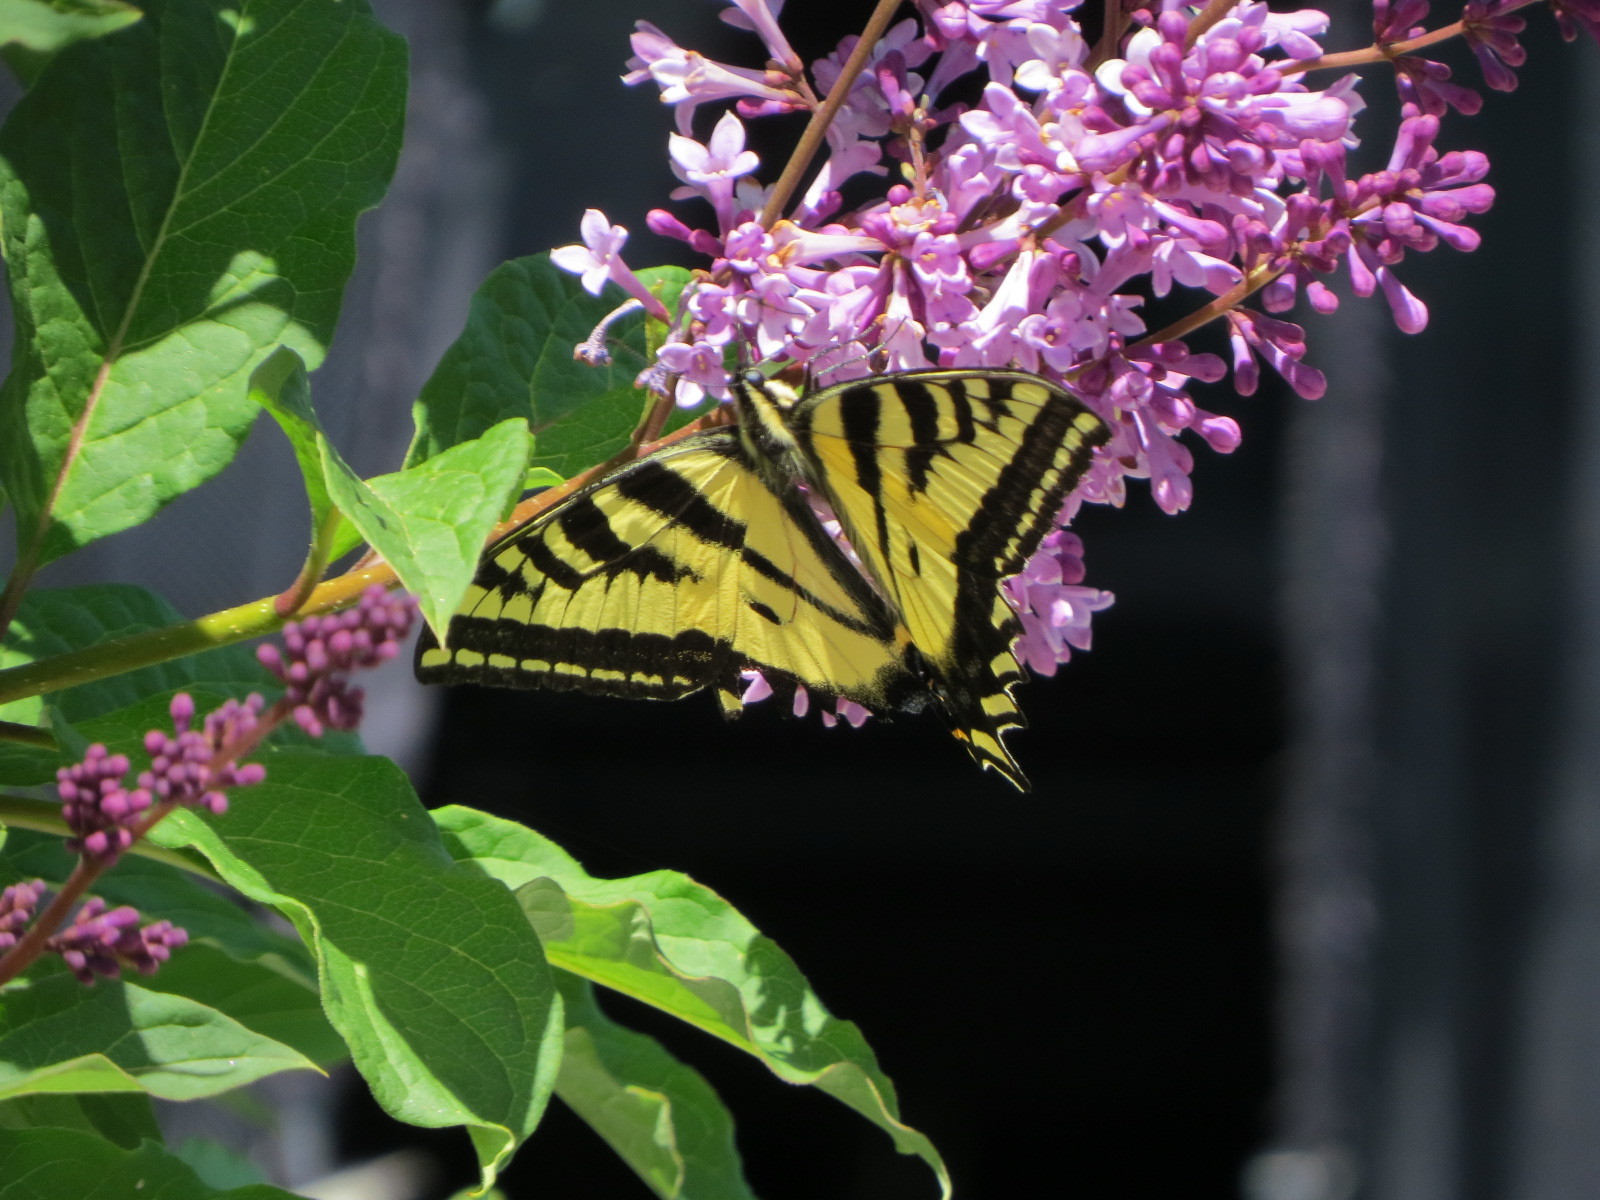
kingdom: Animalia
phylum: Arthropoda
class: Insecta
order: Lepidoptera
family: Papilionidae
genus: Papilio
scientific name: Papilio rutulus
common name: Western tiger swallowtail
